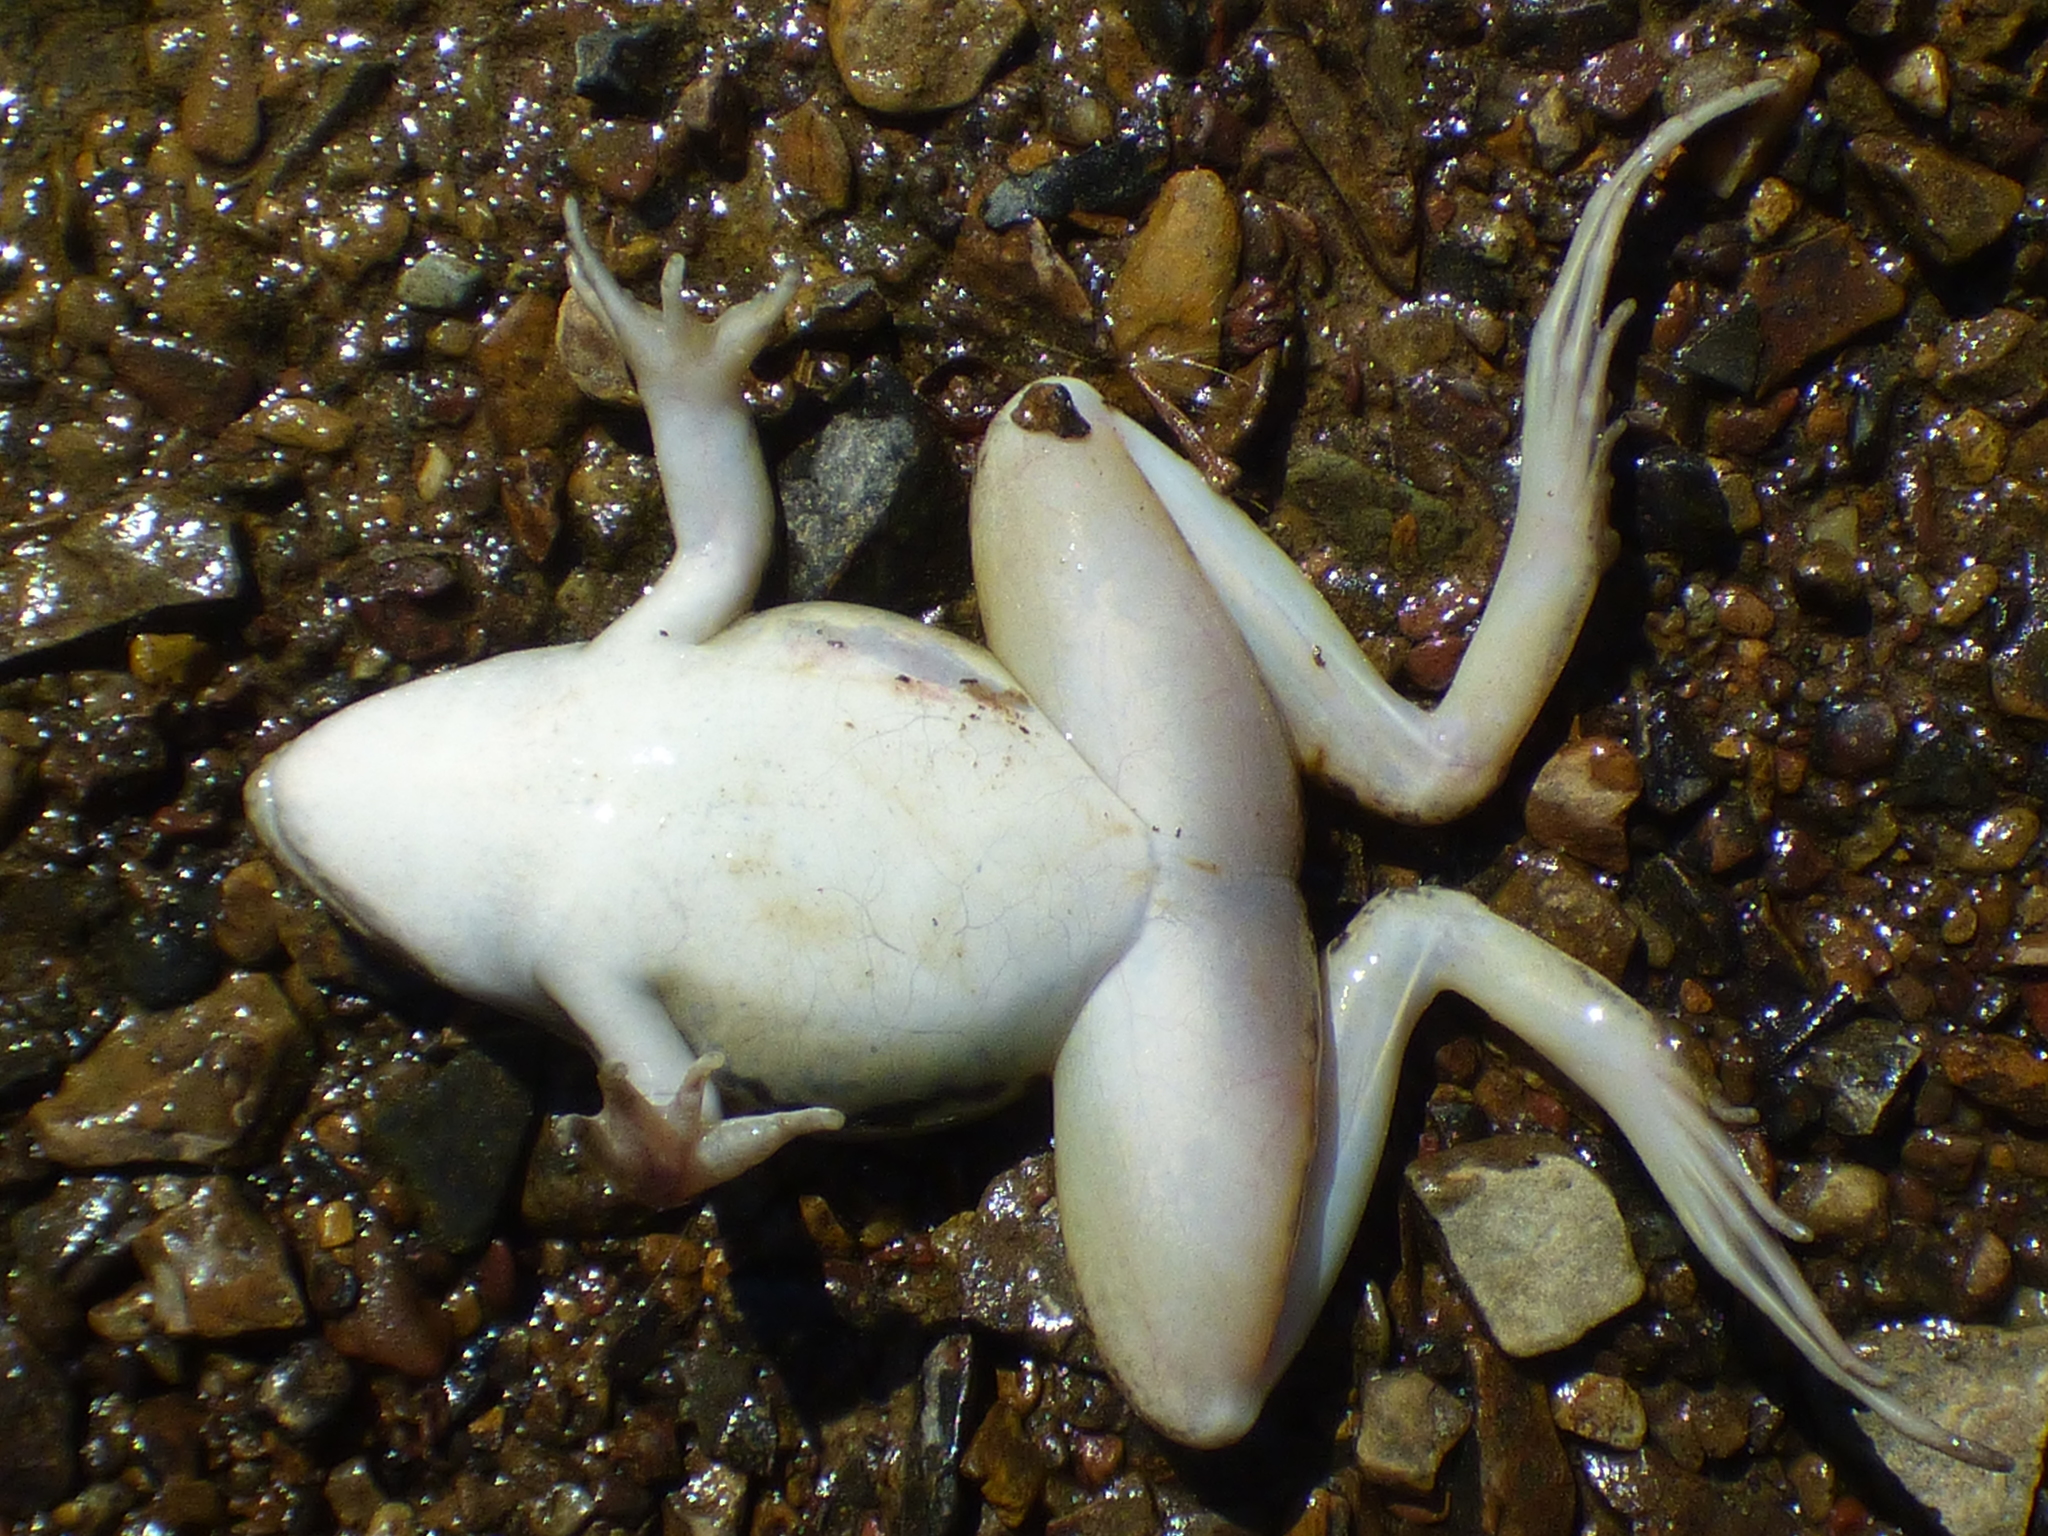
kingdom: Animalia
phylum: Chordata
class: Amphibia
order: Anura
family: Ranidae
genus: Lithobates
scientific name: Lithobates sphenocephalus
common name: Southern leopard frog
